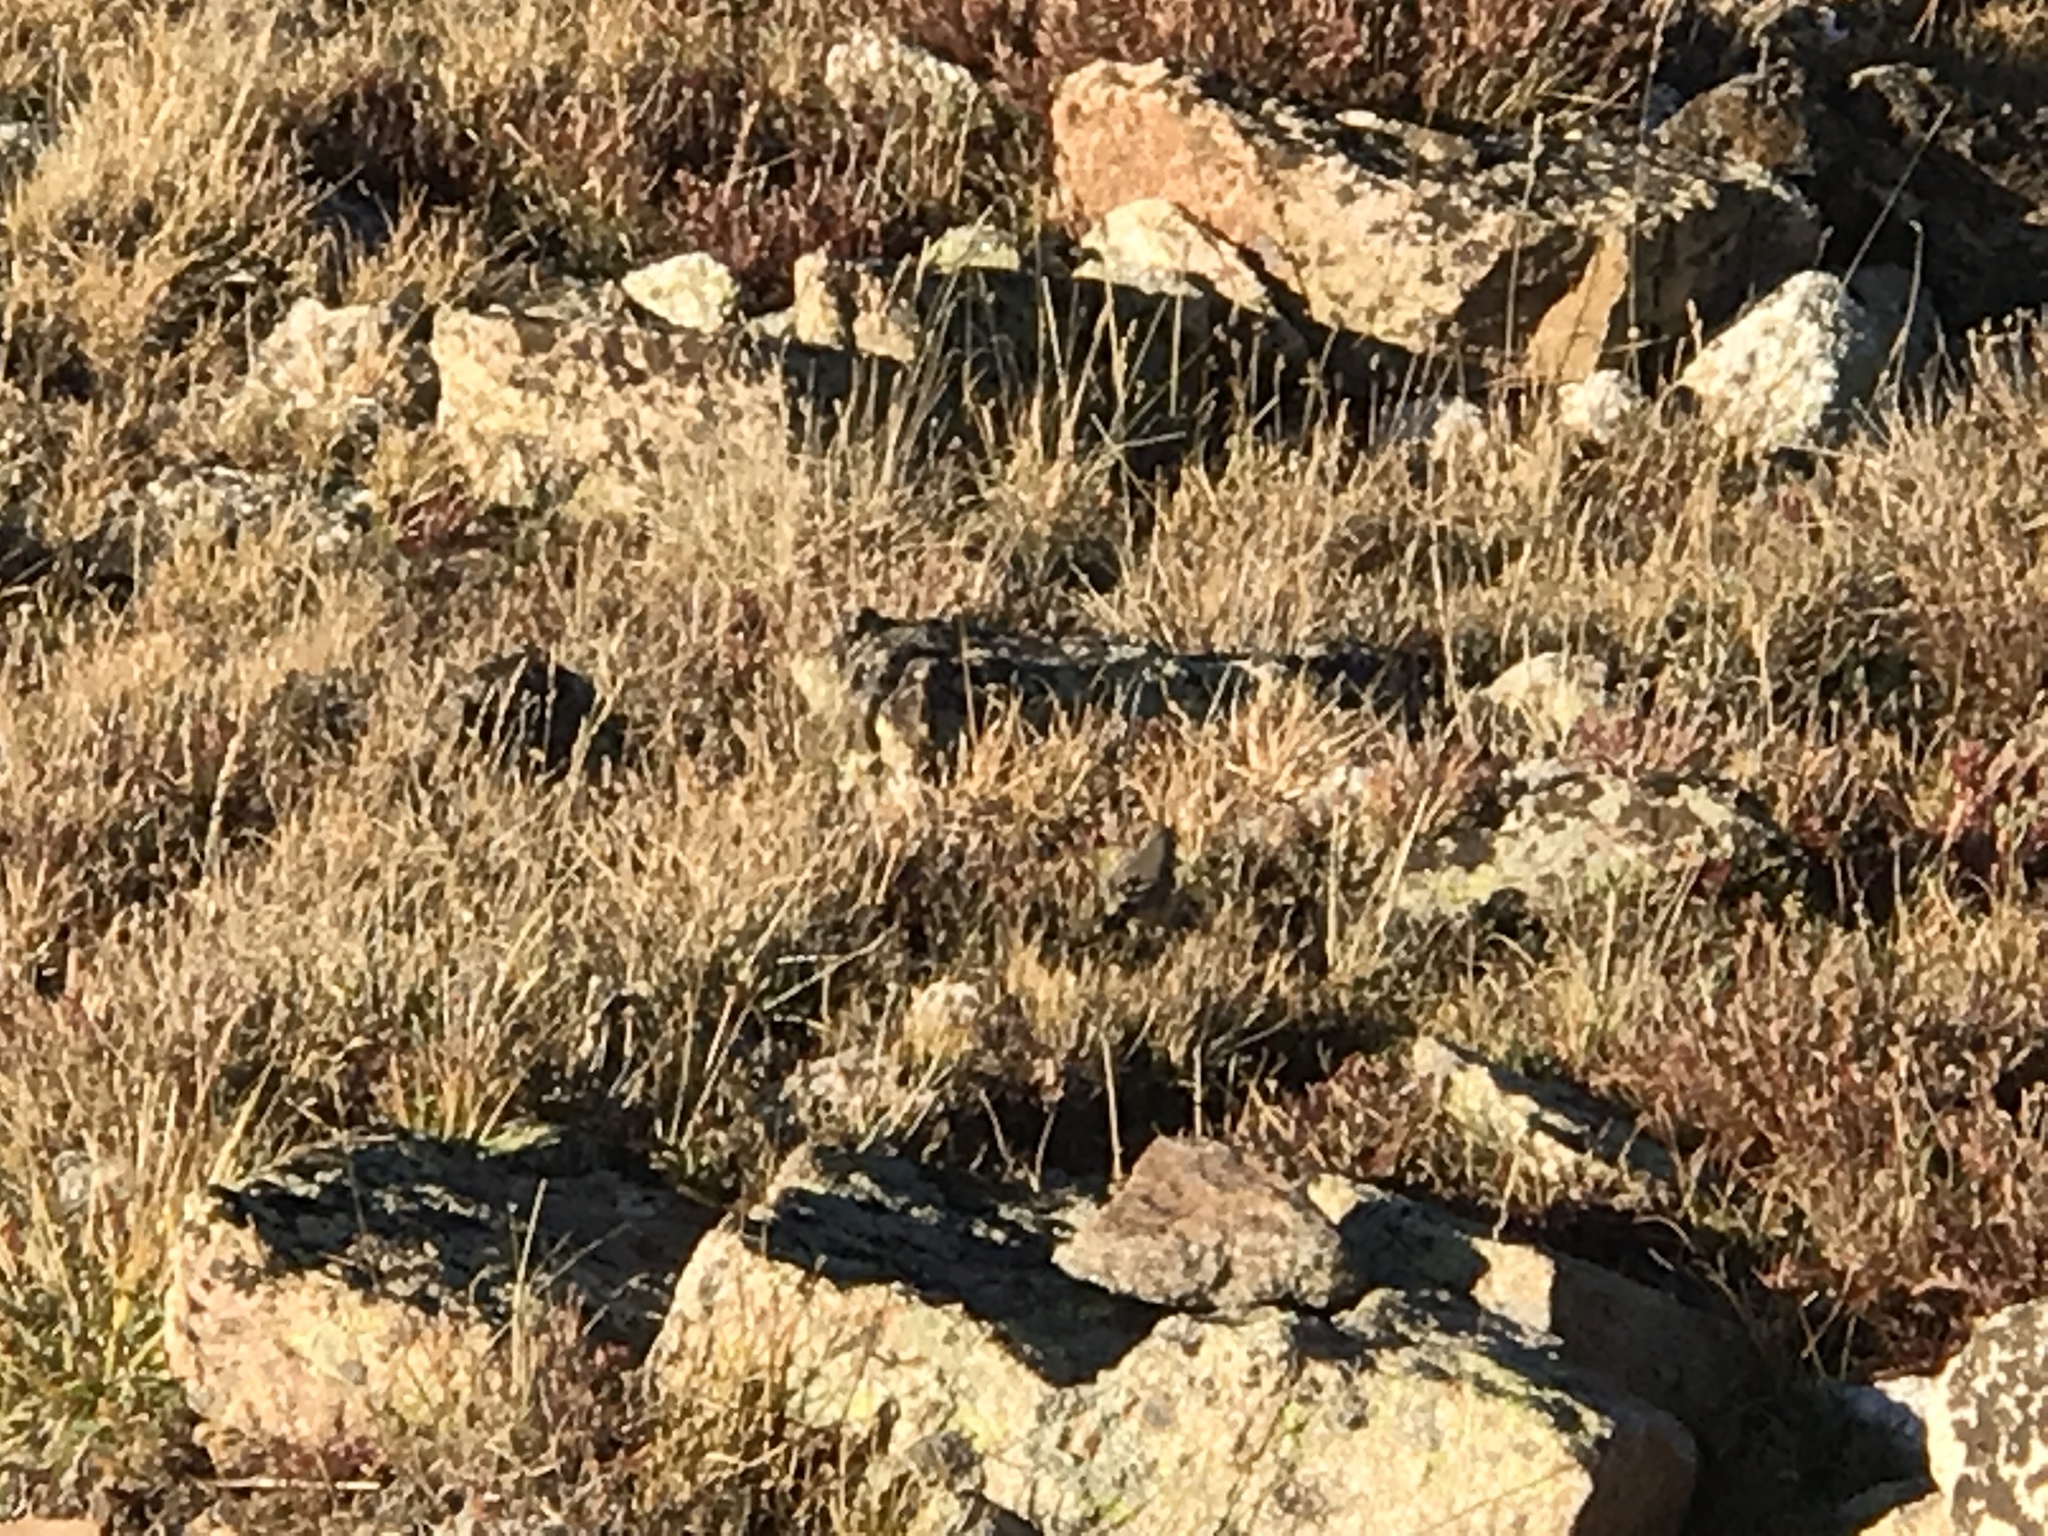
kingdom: Animalia
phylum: Chordata
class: Aves
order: Passeriformes
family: Motacillidae
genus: Anthus
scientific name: Anthus rubescens
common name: Buff-bellied pipit
